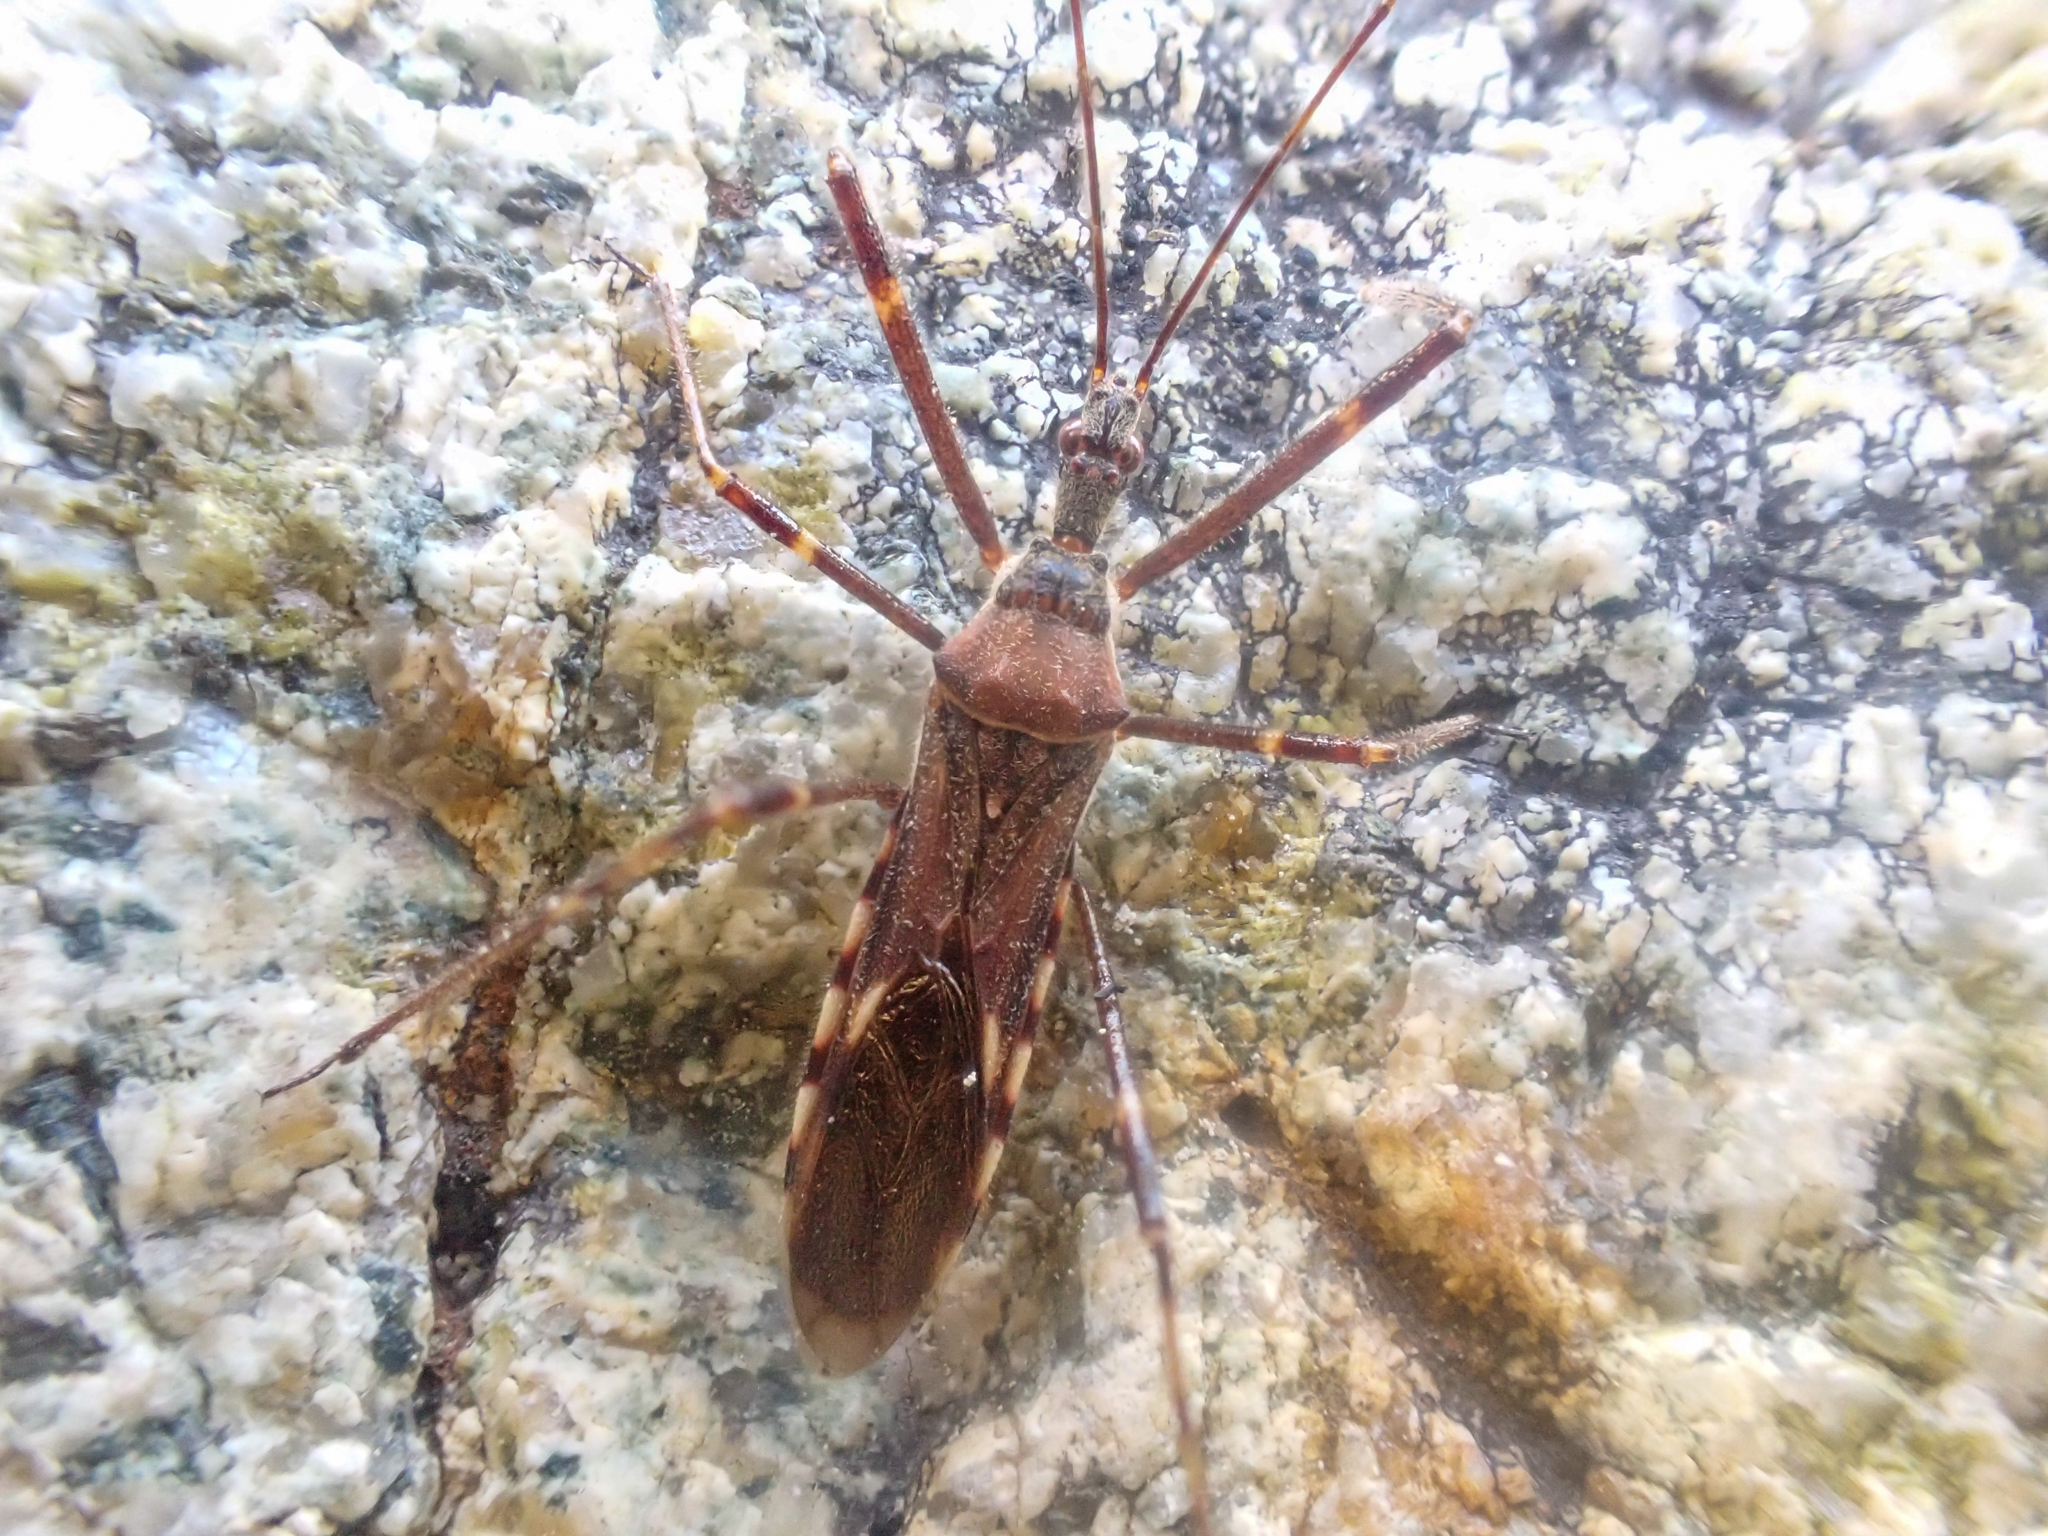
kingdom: Animalia
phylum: Arthropoda
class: Insecta
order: Hemiptera
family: Reduviidae
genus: Zelus
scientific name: Zelus tetracanthus
